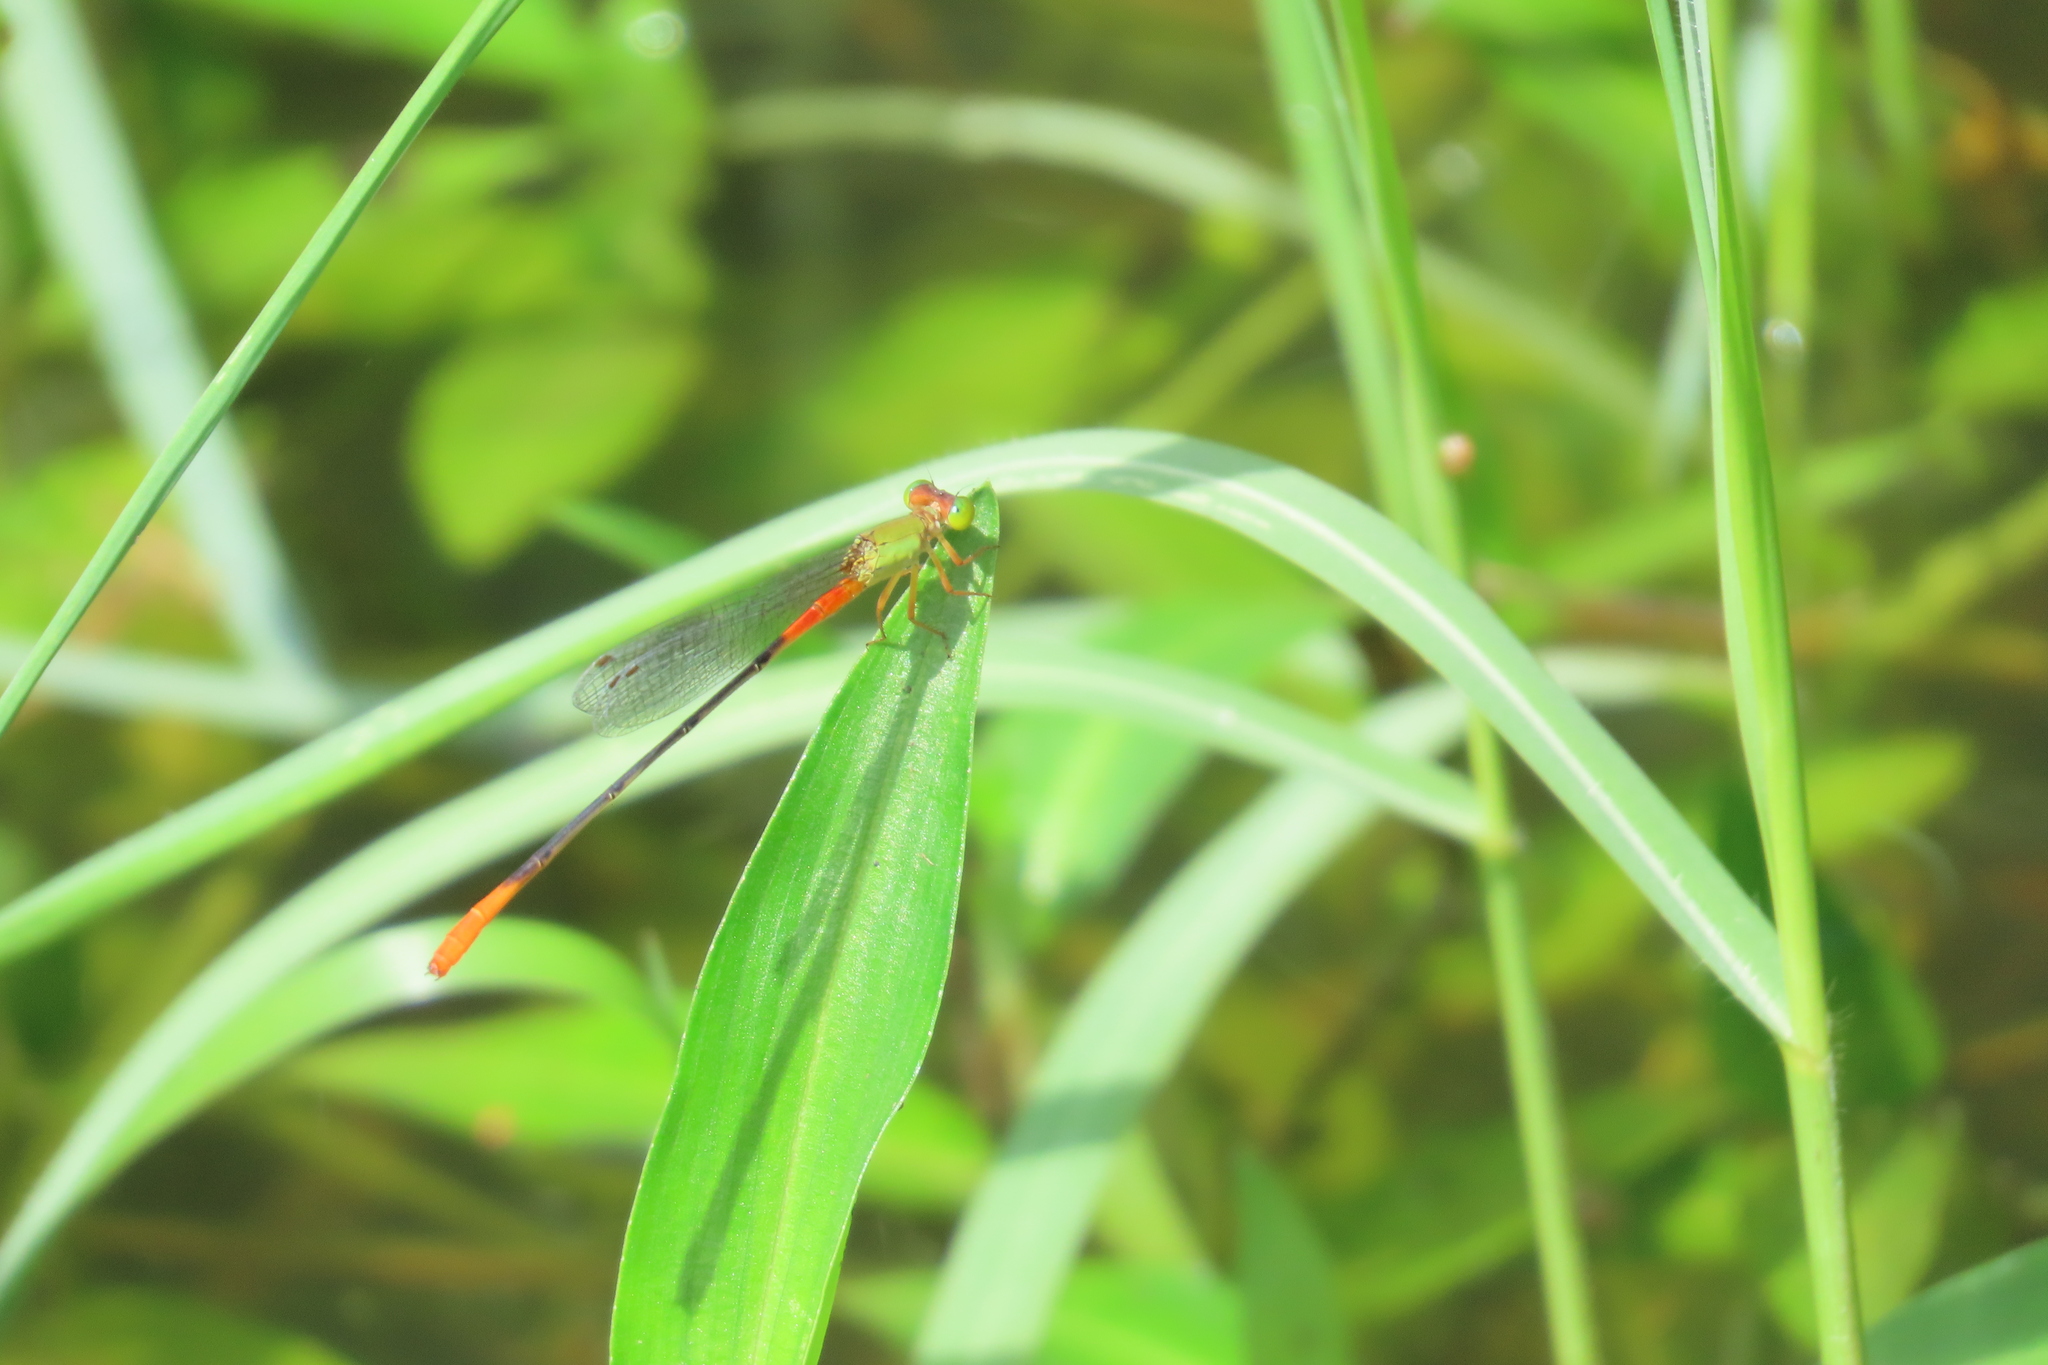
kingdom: Animalia
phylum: Arthropoda
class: Insecta
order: Odonata
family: Coenagrionidae
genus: Ceriagrion
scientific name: Ceriagrion cerinorubellum
